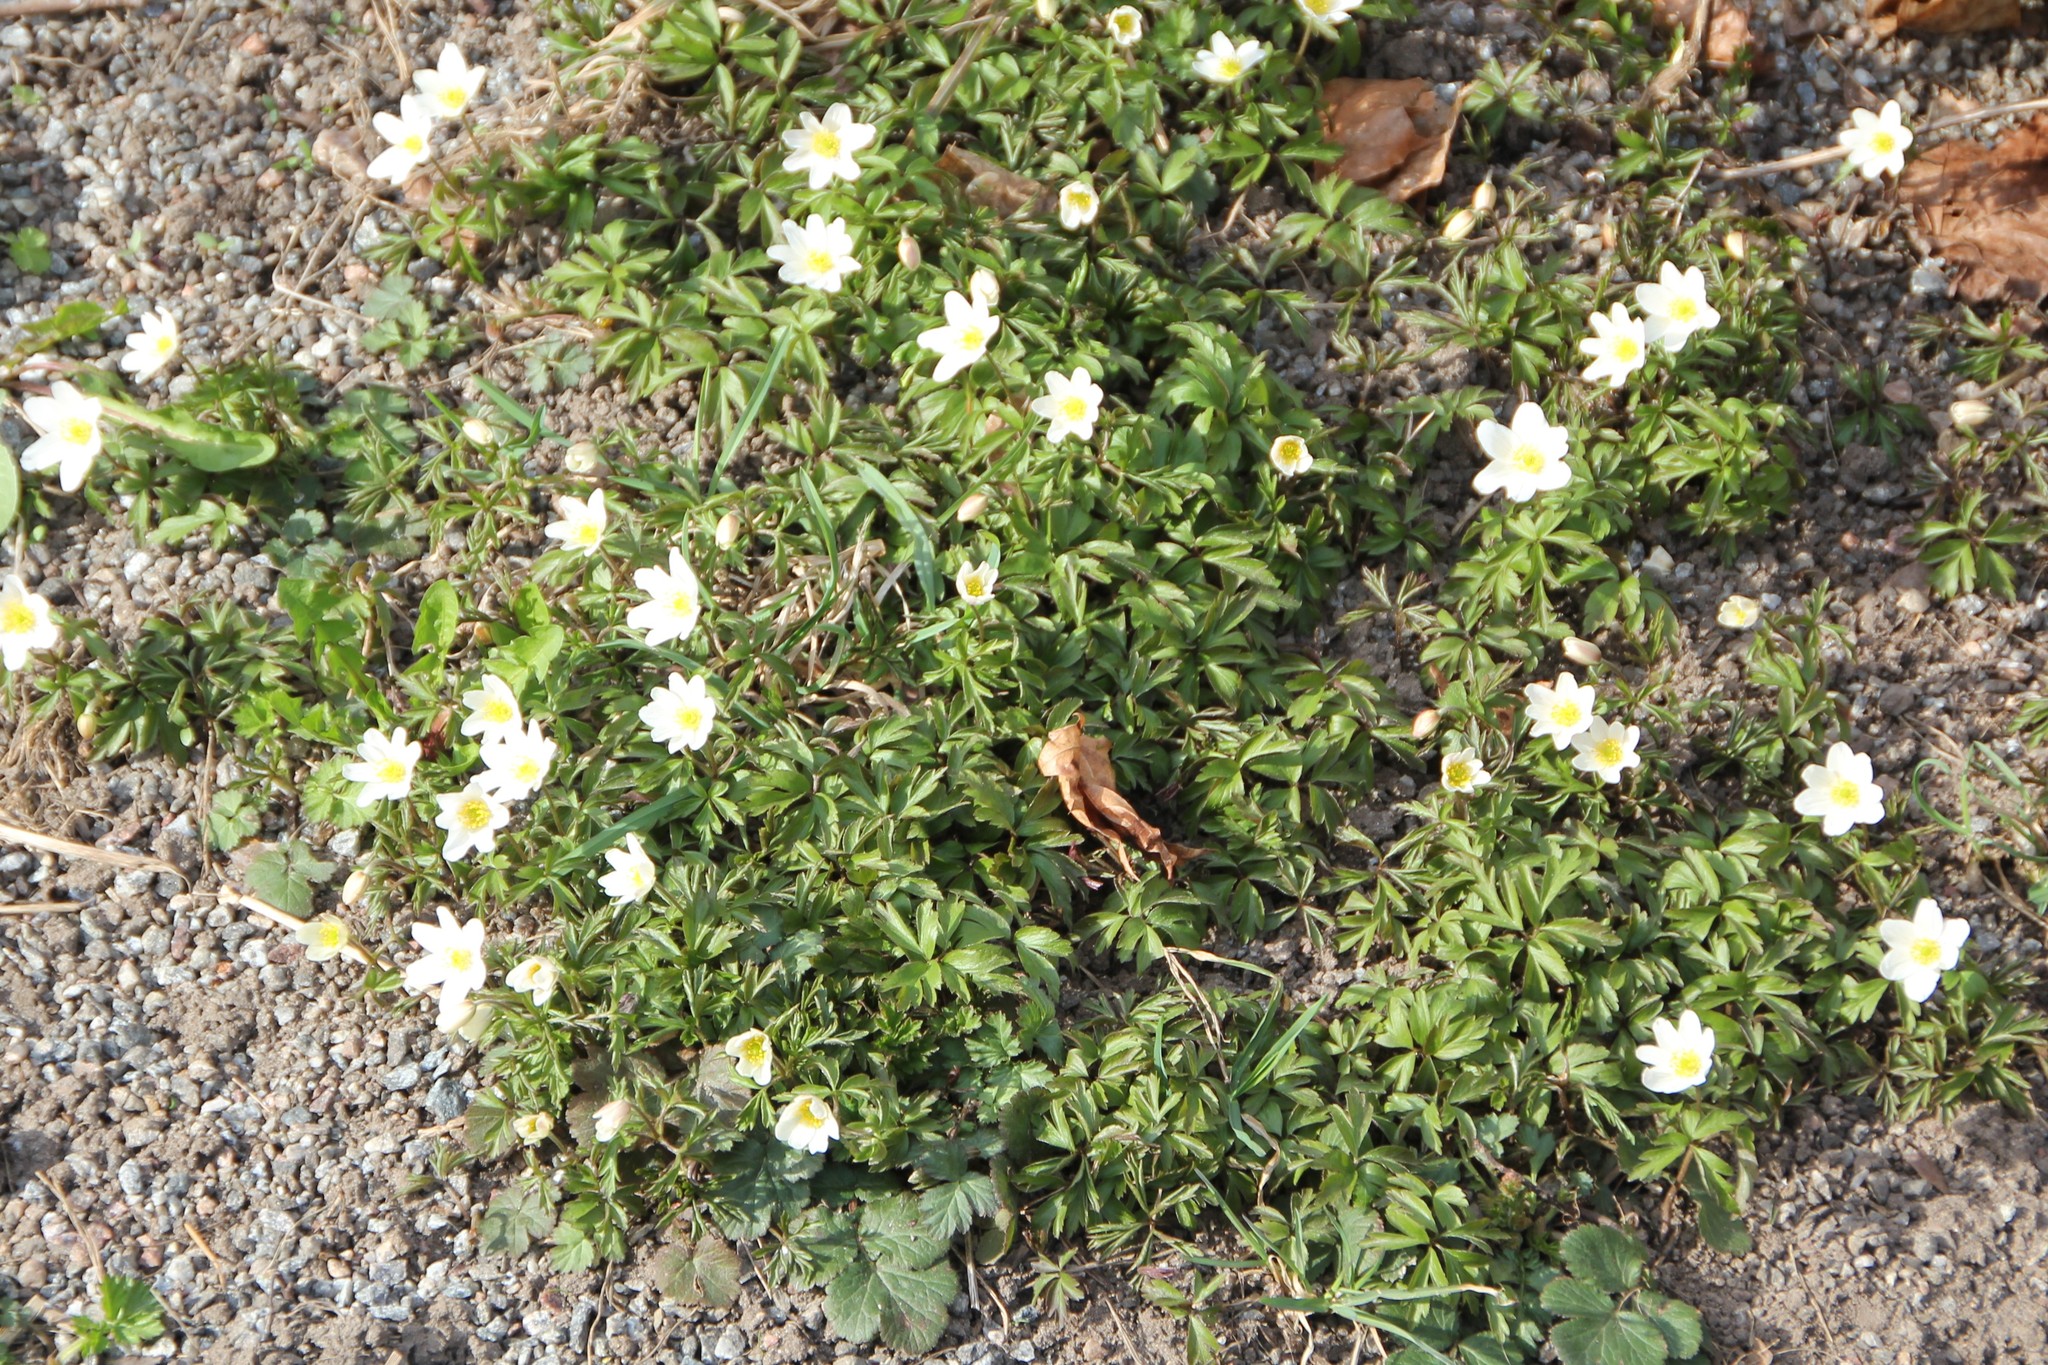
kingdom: Plantae
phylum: Tracheophyta
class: Magnoliopsida
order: Ranunculales
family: Ranunculaceae
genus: Anemone
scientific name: Anemone nemorosa
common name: Wood anemone
